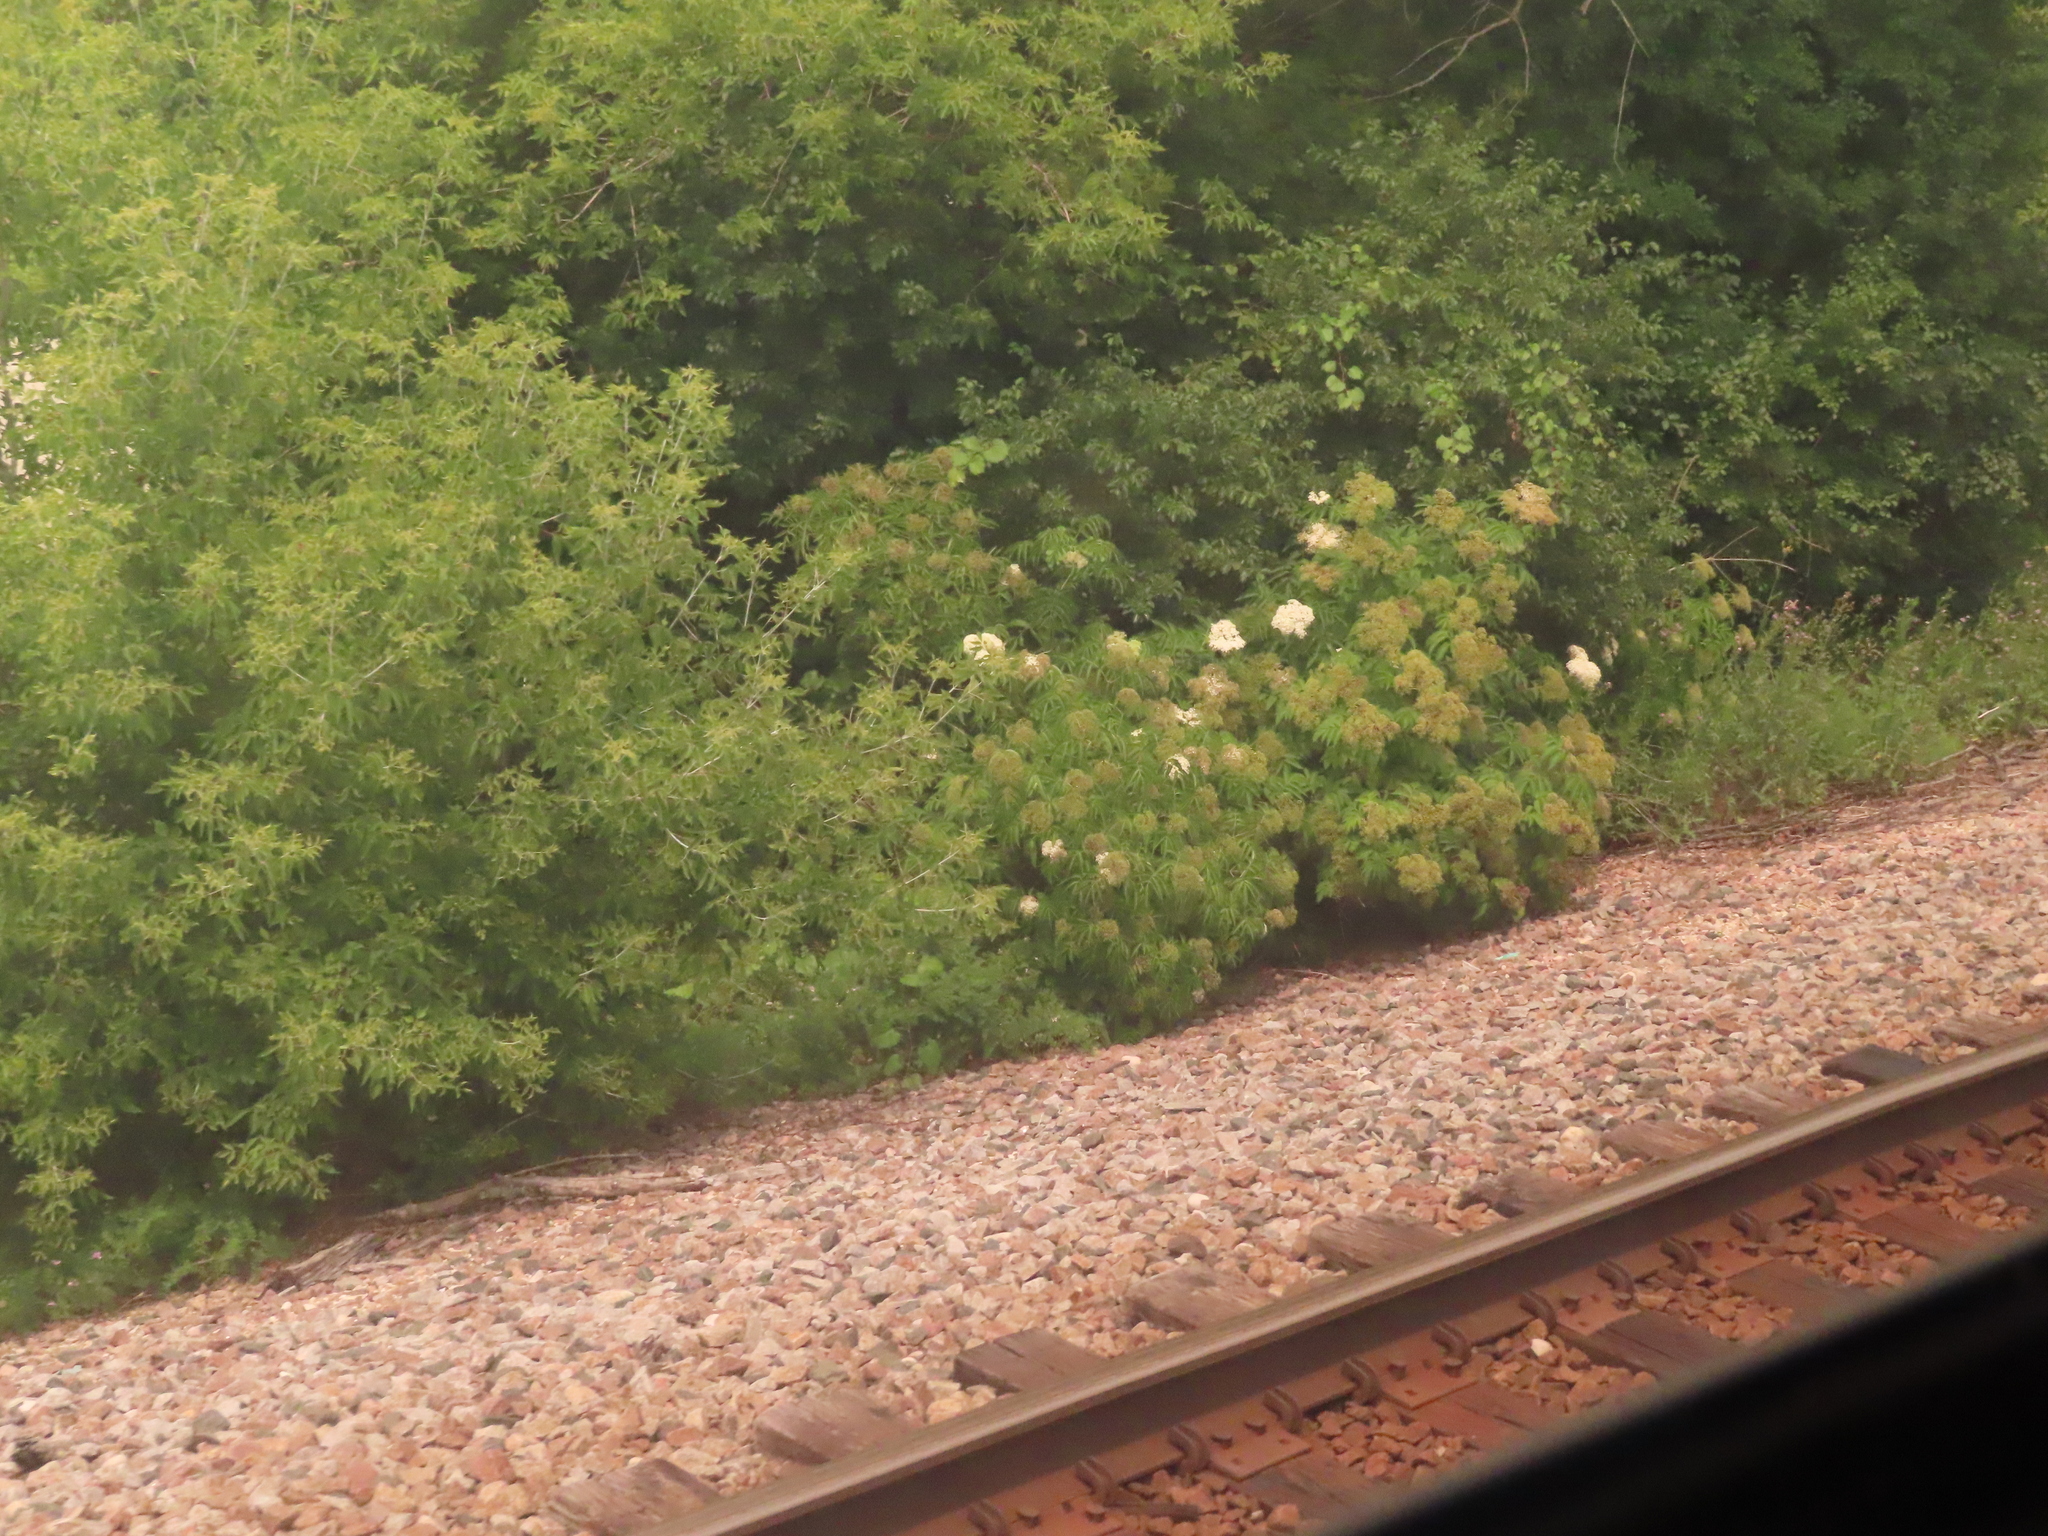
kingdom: Plantae
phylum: Tracheophyta
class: Magnoliopsida
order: Sapindales
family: Sapindaceae
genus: Acer
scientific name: Acer negundo
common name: Ashleaf maple
